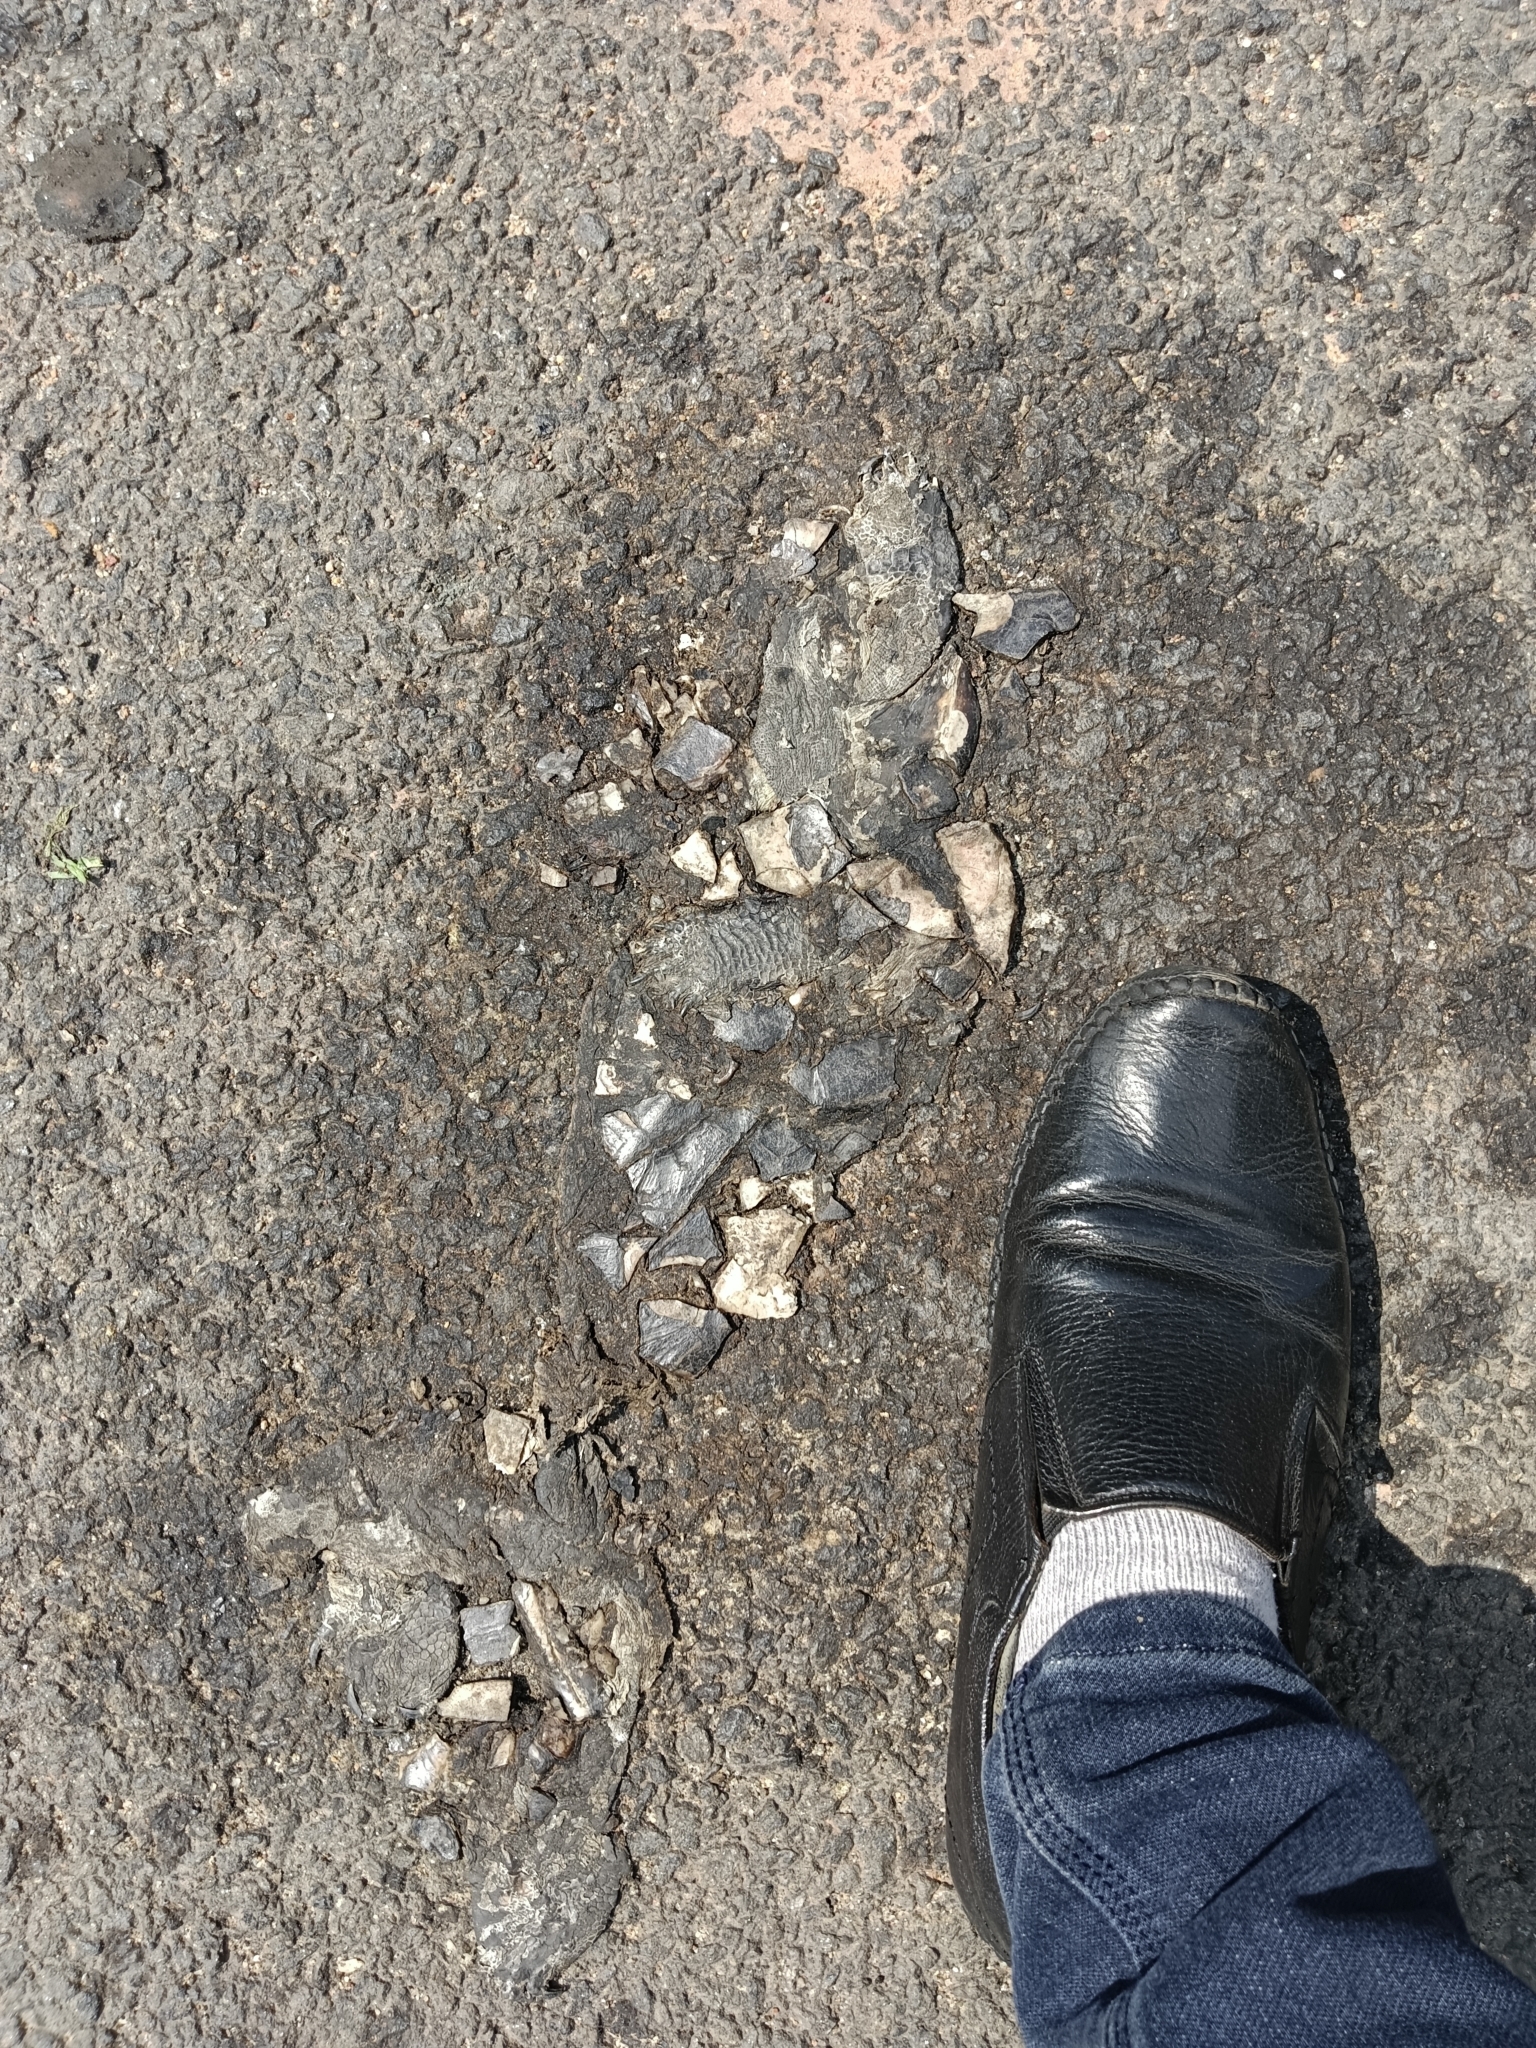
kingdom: Animalia
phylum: Chordata
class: Testudines
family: Geoemydidae
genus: Melanochelys
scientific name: Melanochelys trijuga
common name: Indian black turtle
